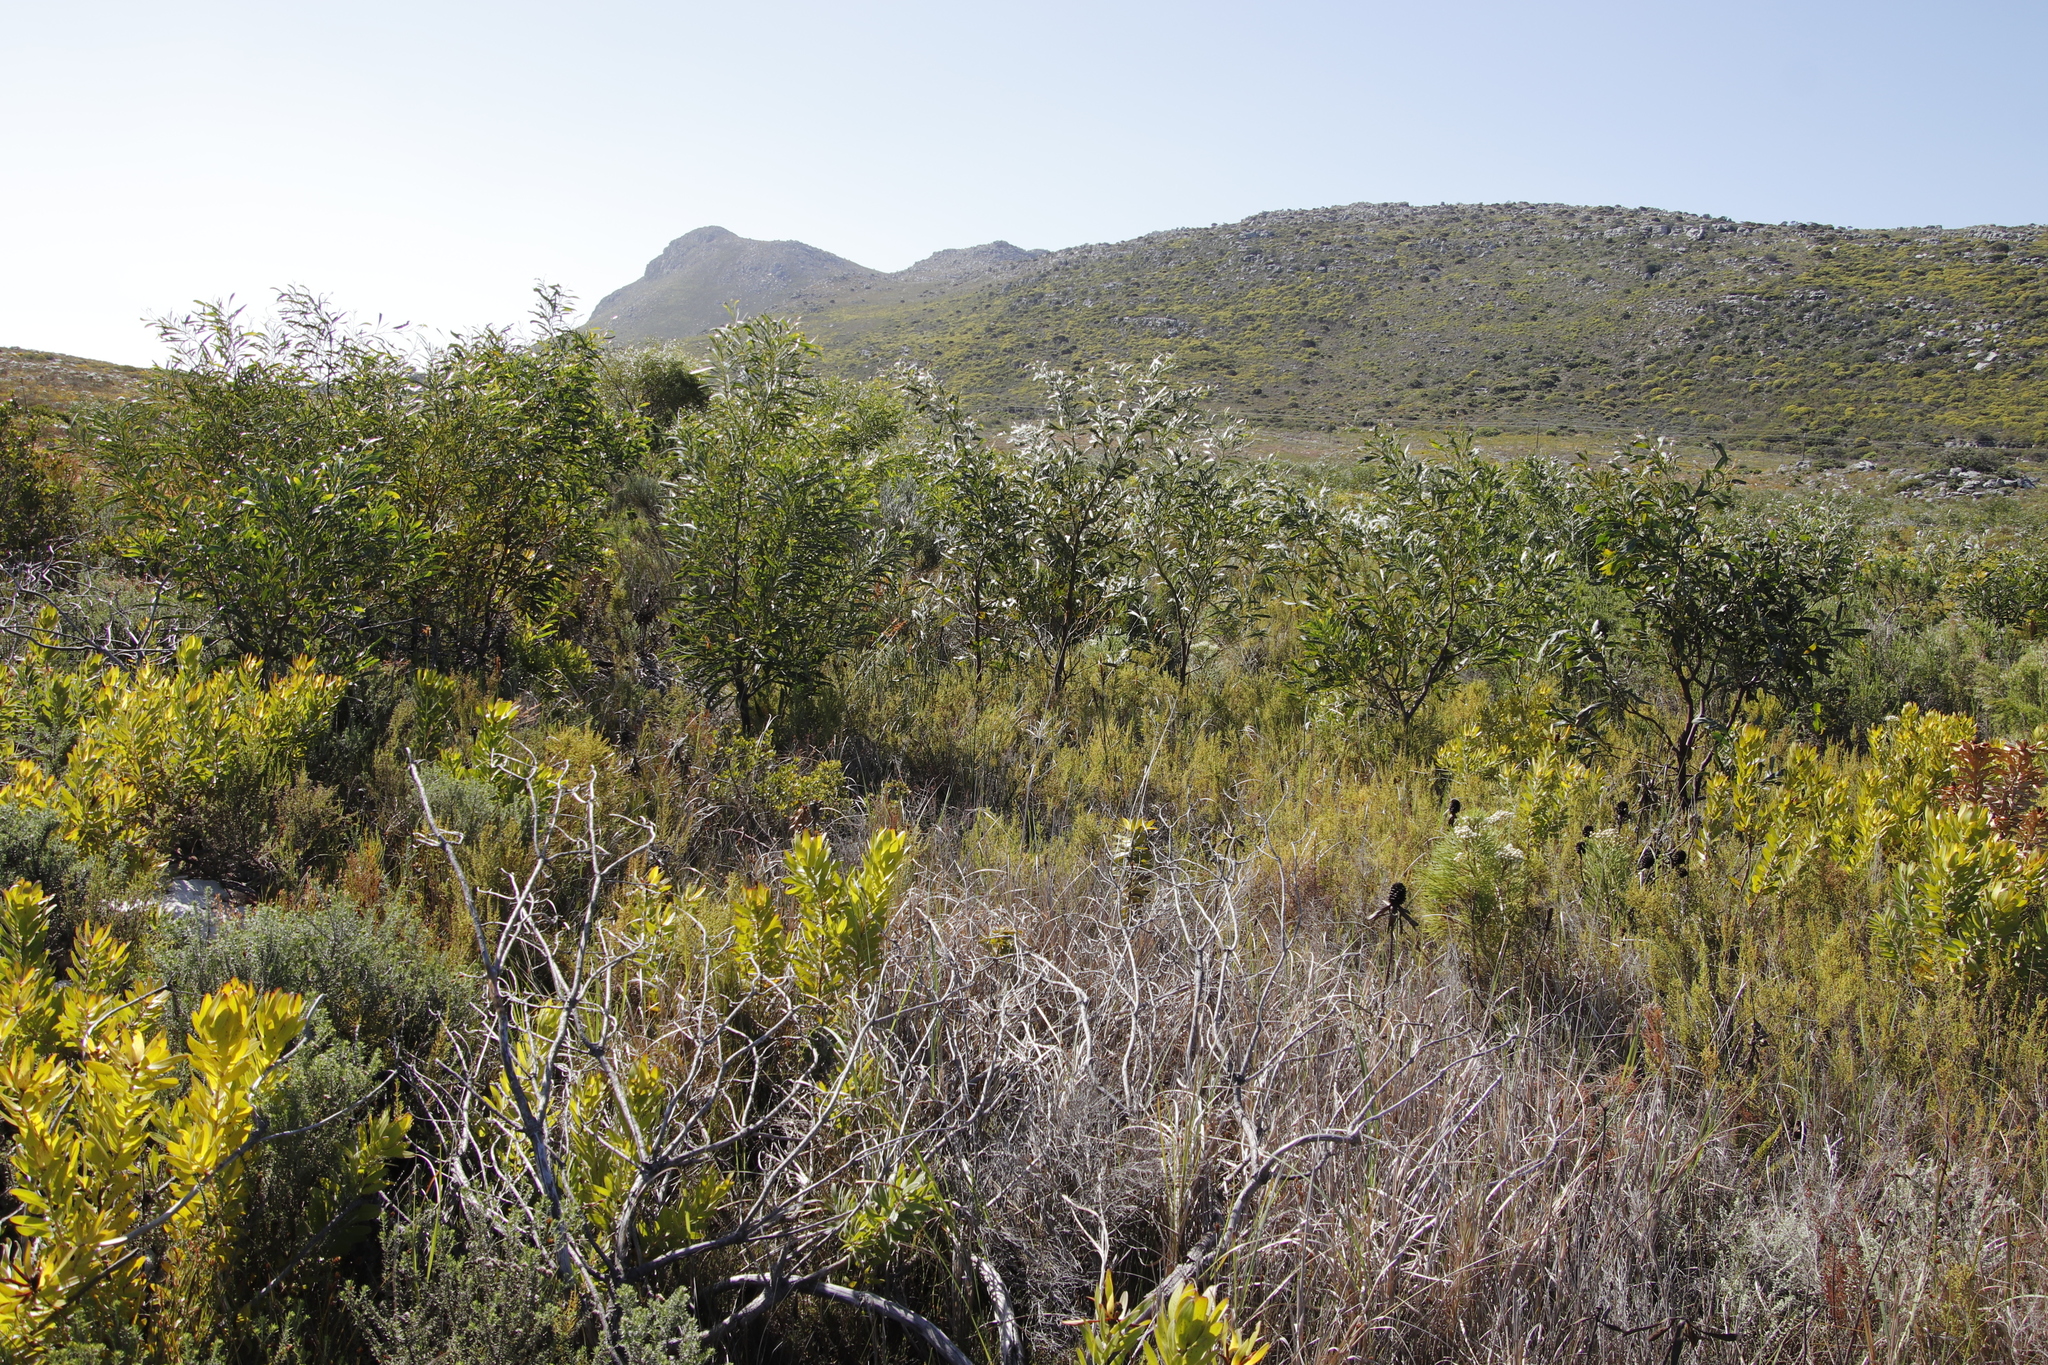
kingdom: Plantae
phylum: Tracheophyta
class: Magnoliopsida
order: Fabales
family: Fabaceae
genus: Acacia
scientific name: Acacia saligna
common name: Orange wattle
